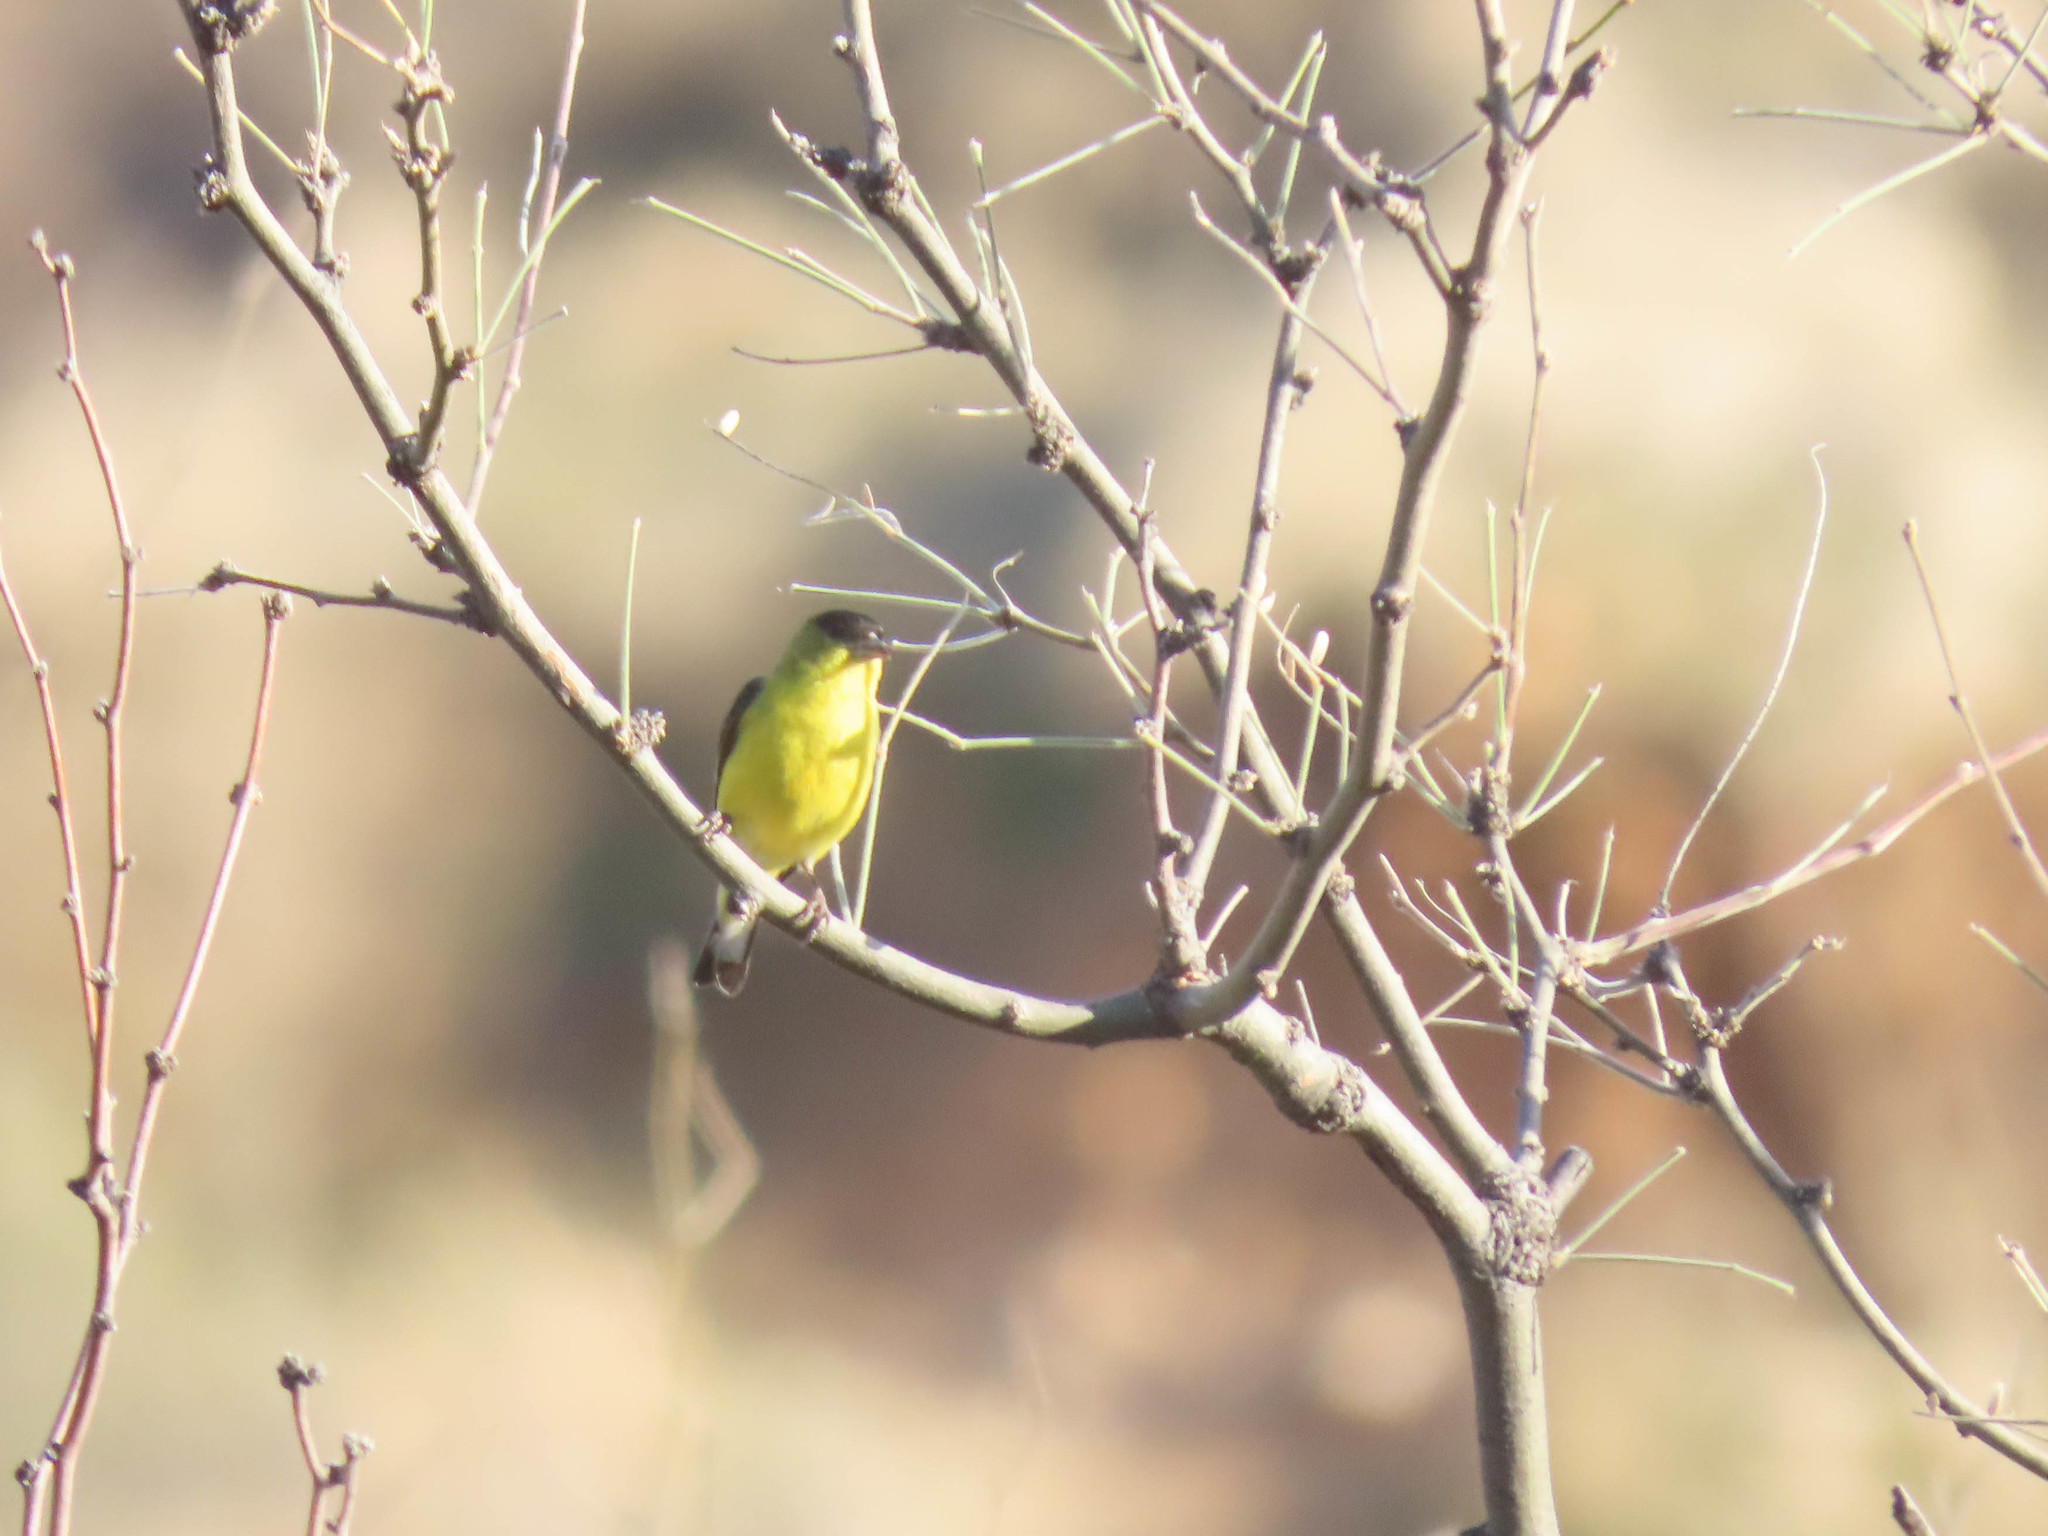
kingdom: Animalia
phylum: Chordata
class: Aves
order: Passeriformes
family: Fringillidae
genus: Spinus
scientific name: Spinus psaltria
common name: Lesser goldfinch
